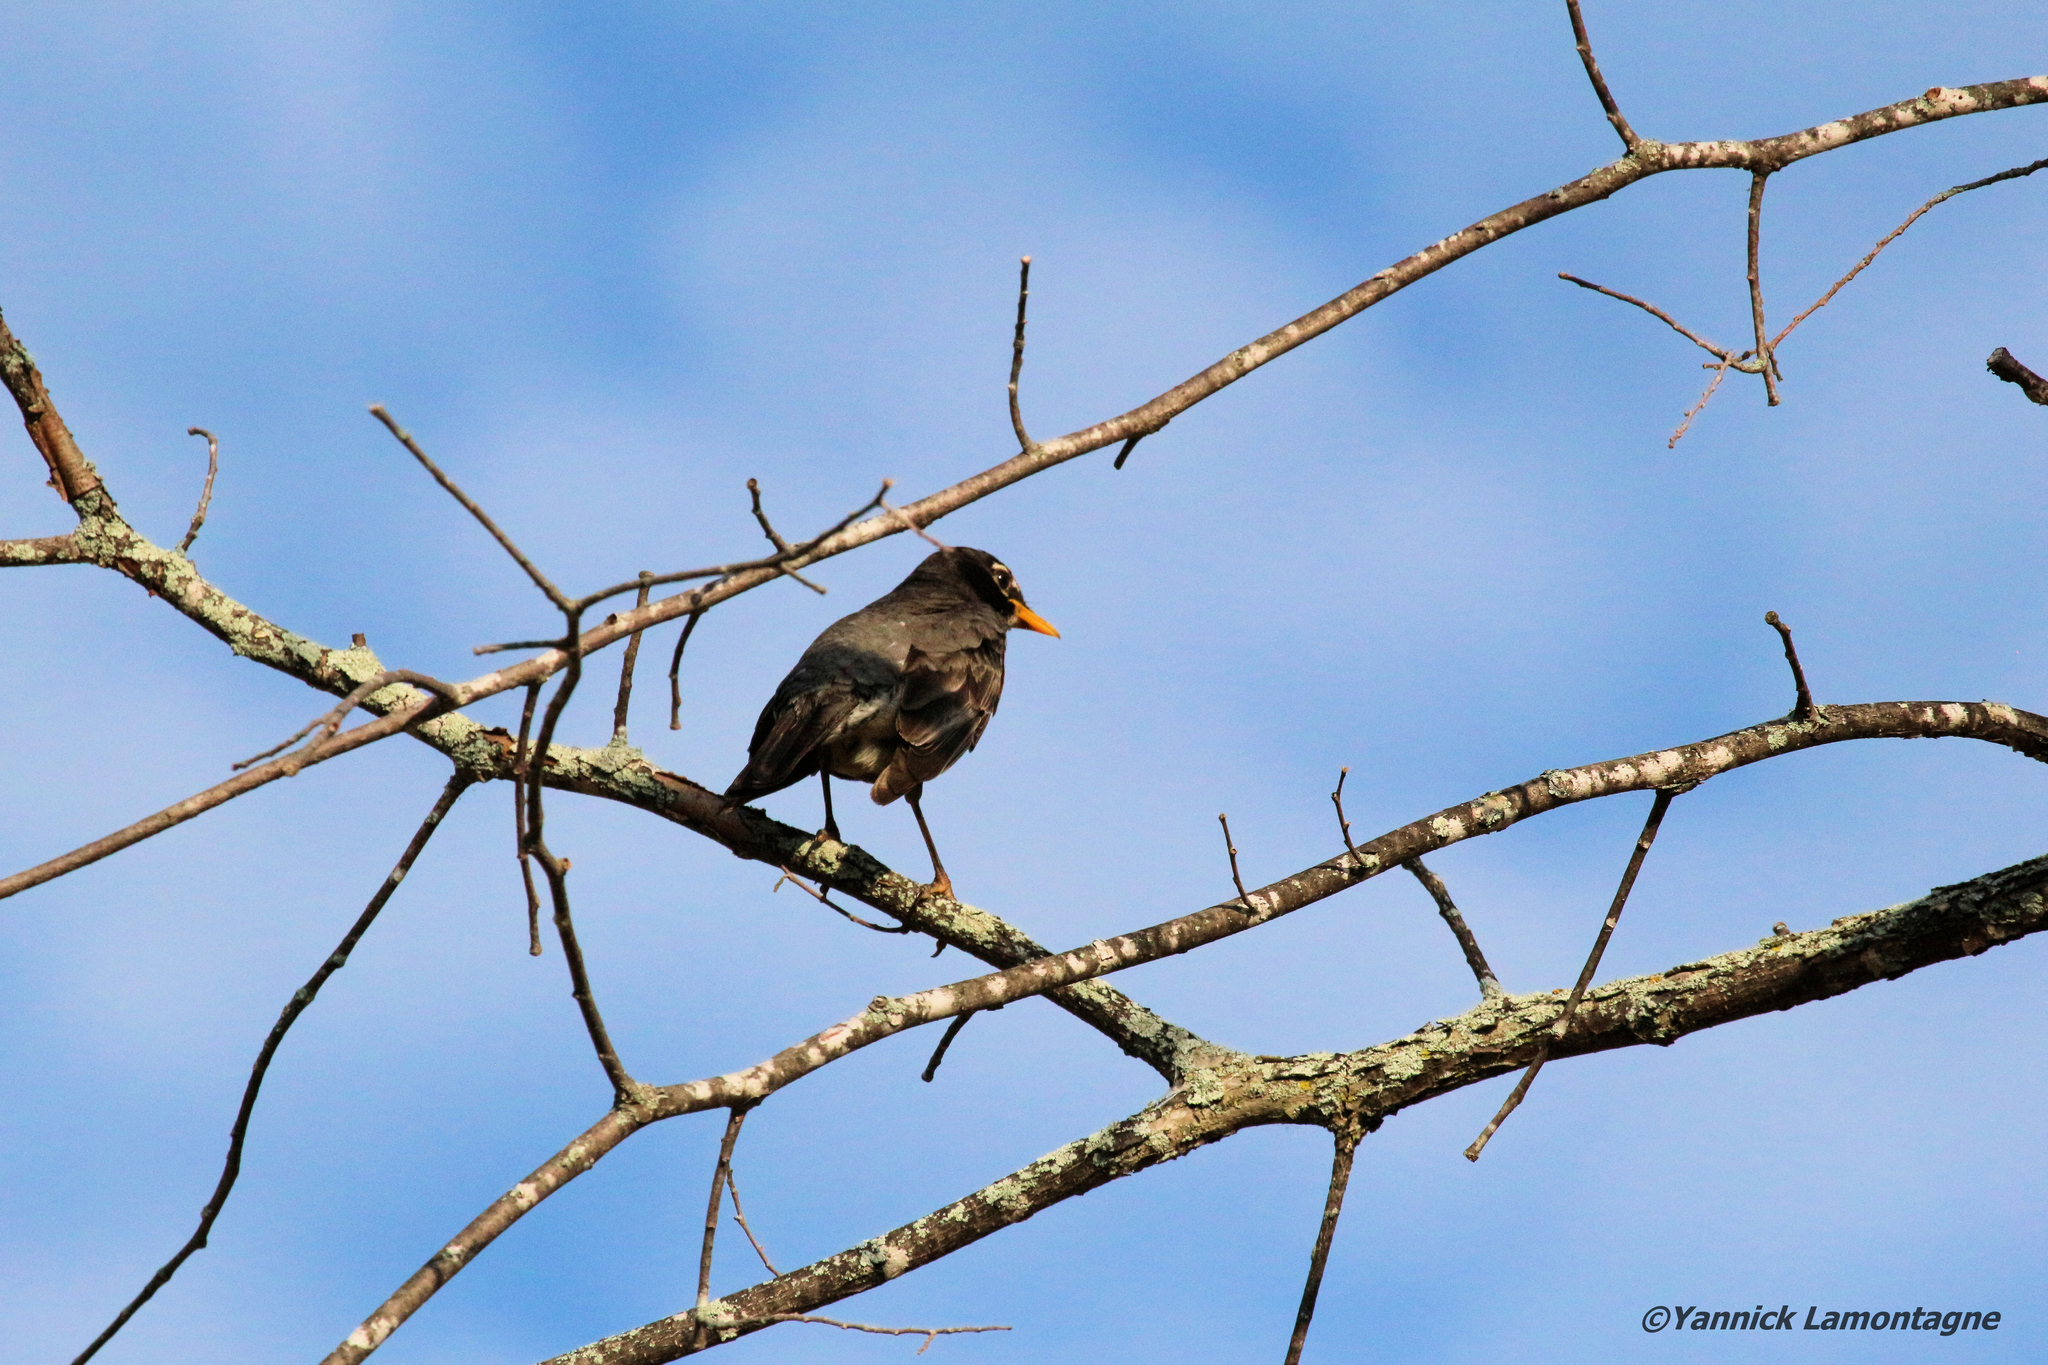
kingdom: Animalia
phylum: Chordata
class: Aves
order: Passeriformes
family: Turdidae
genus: Turdus
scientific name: Turdus migratorius
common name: American robin
